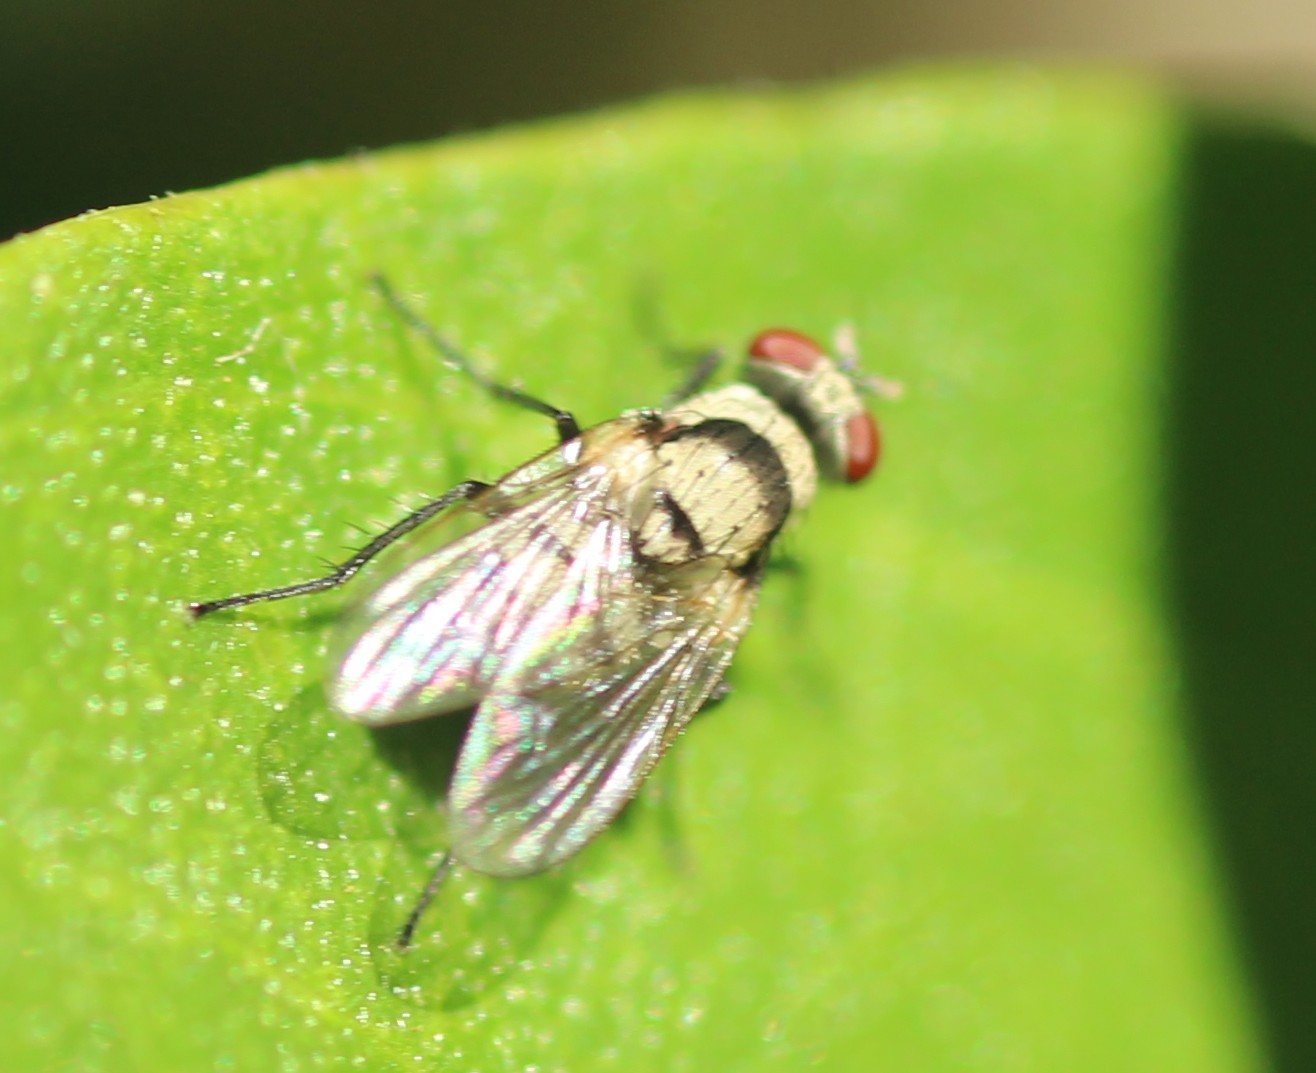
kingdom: Animalia
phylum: Arthropoda
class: Insecta
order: Diptera
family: Anthomyiidae
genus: Anthomyia
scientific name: Anthomyia illocata
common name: Fly
